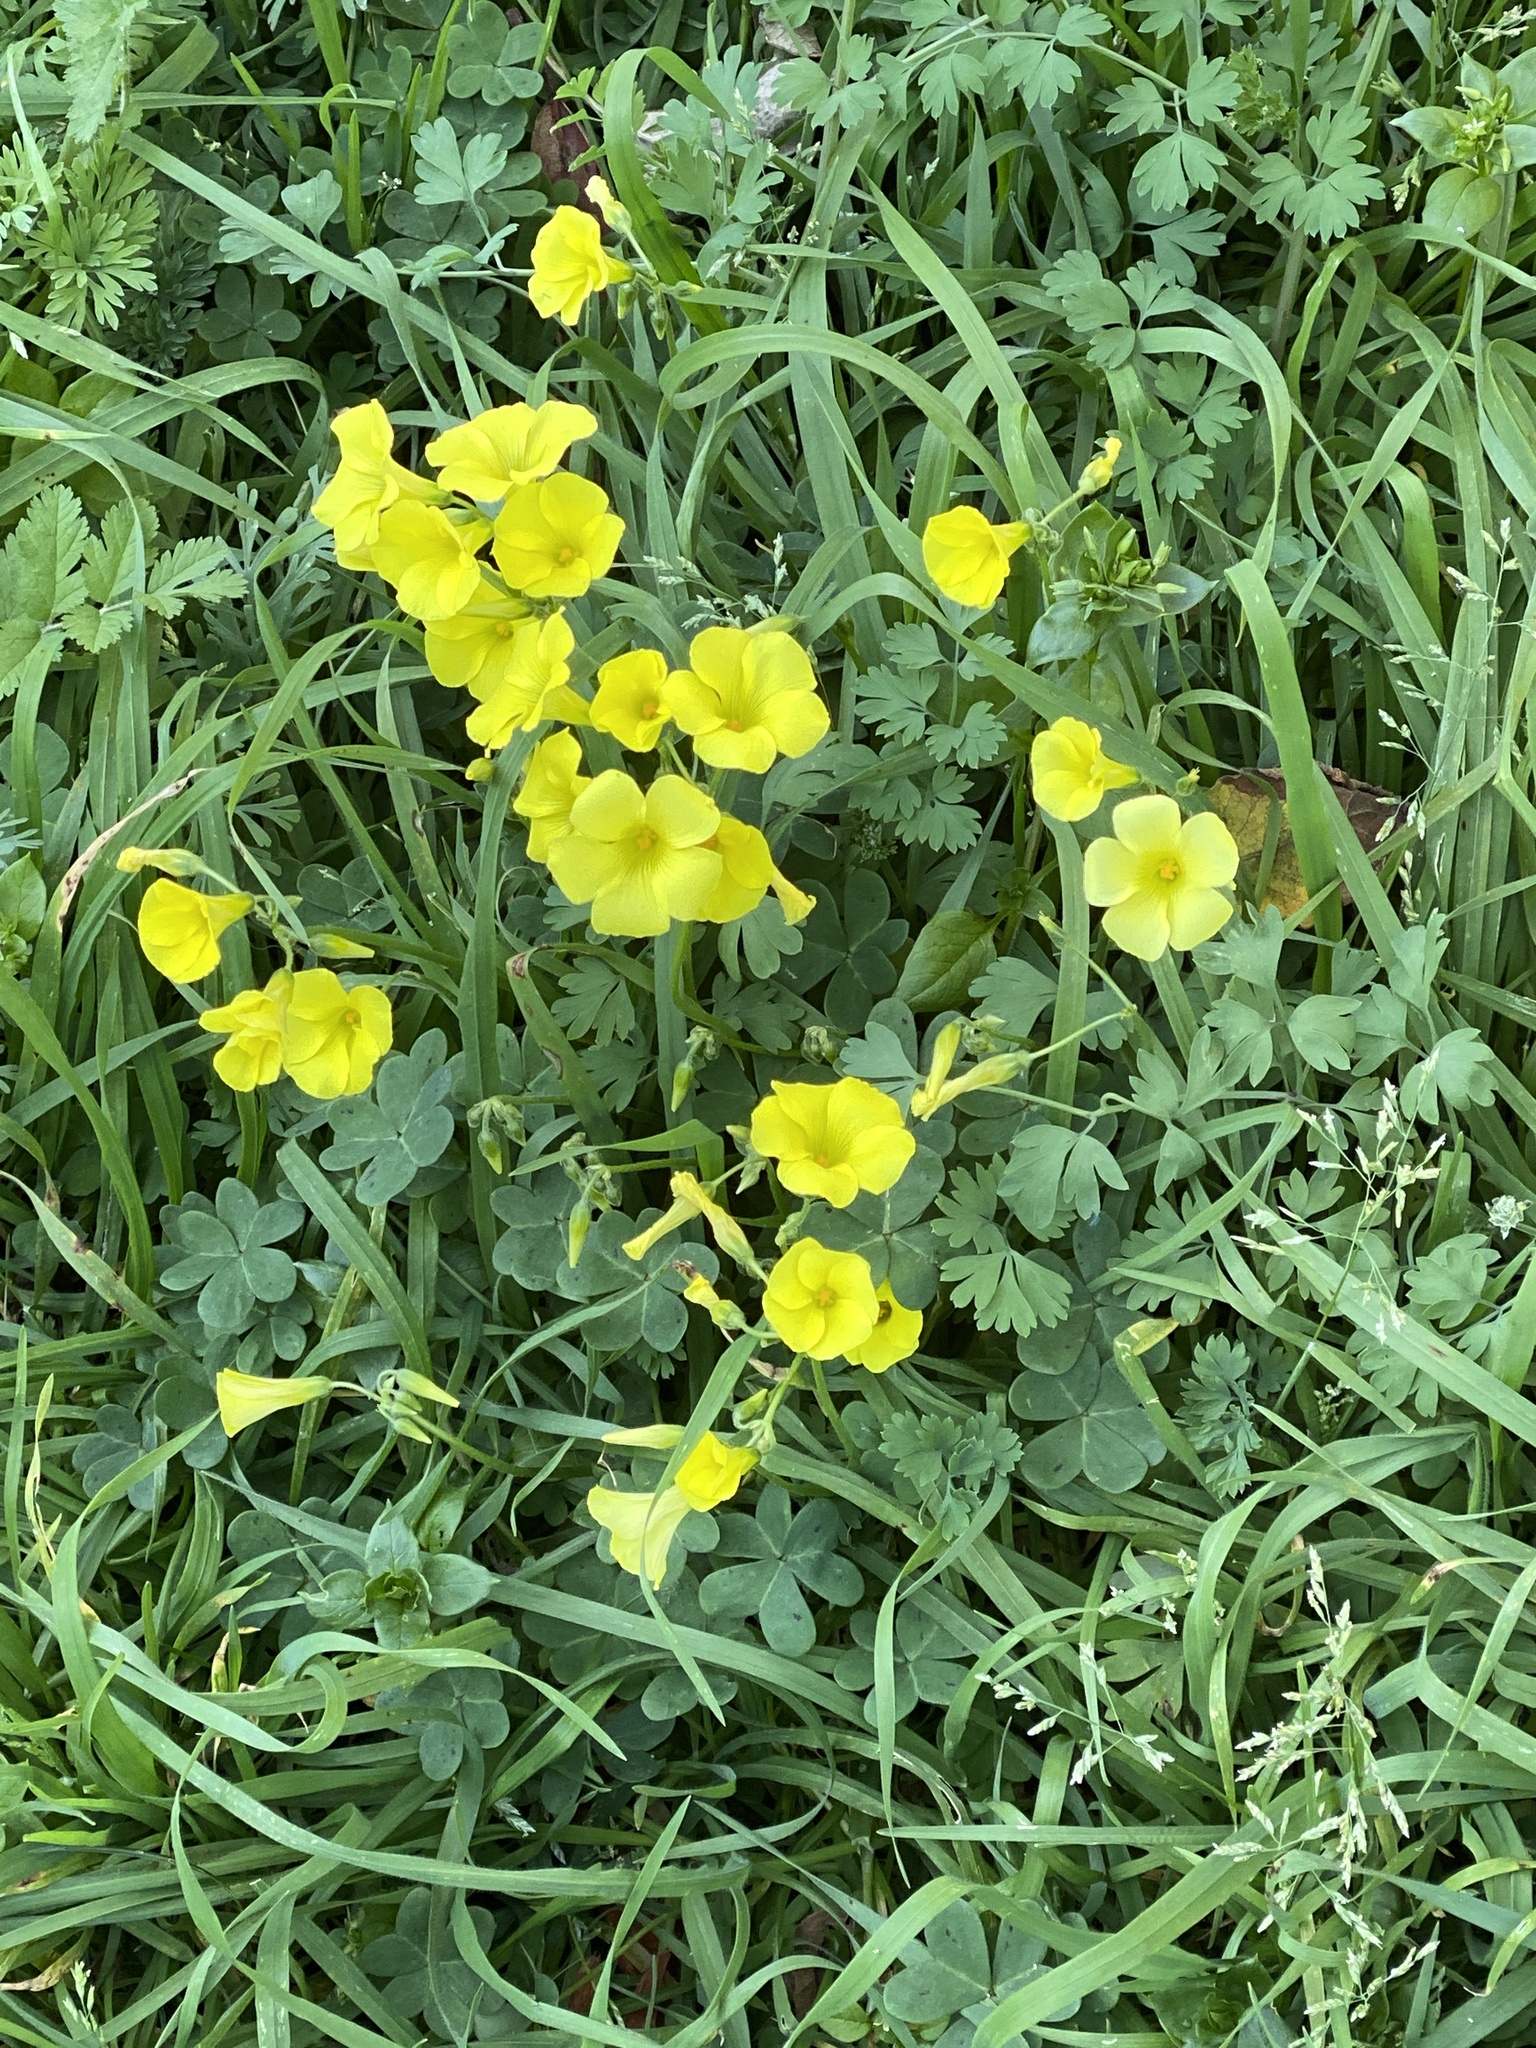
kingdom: Plantae
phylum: Tracheophyta
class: Magnoliopsida
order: Oxalidales
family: Oxalidaceae
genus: Oxalis
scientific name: Oxalis pes-caprae
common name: Bermuda-buttercup
